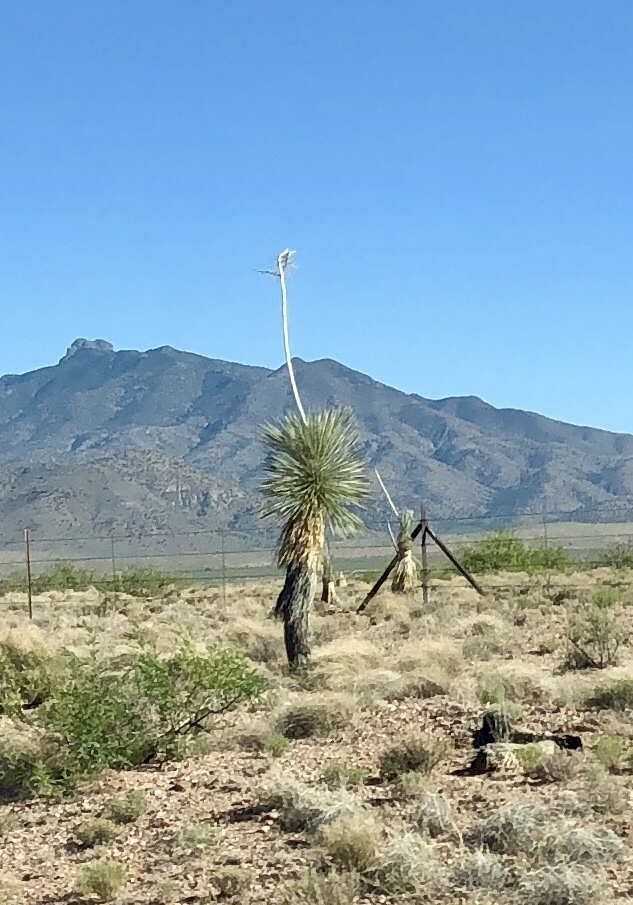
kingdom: Plantae
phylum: Tracheophyta
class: Liliopsida
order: Asparagales
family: Asparagaceae
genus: Yucca
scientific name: Yucca elata
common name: Palmella
